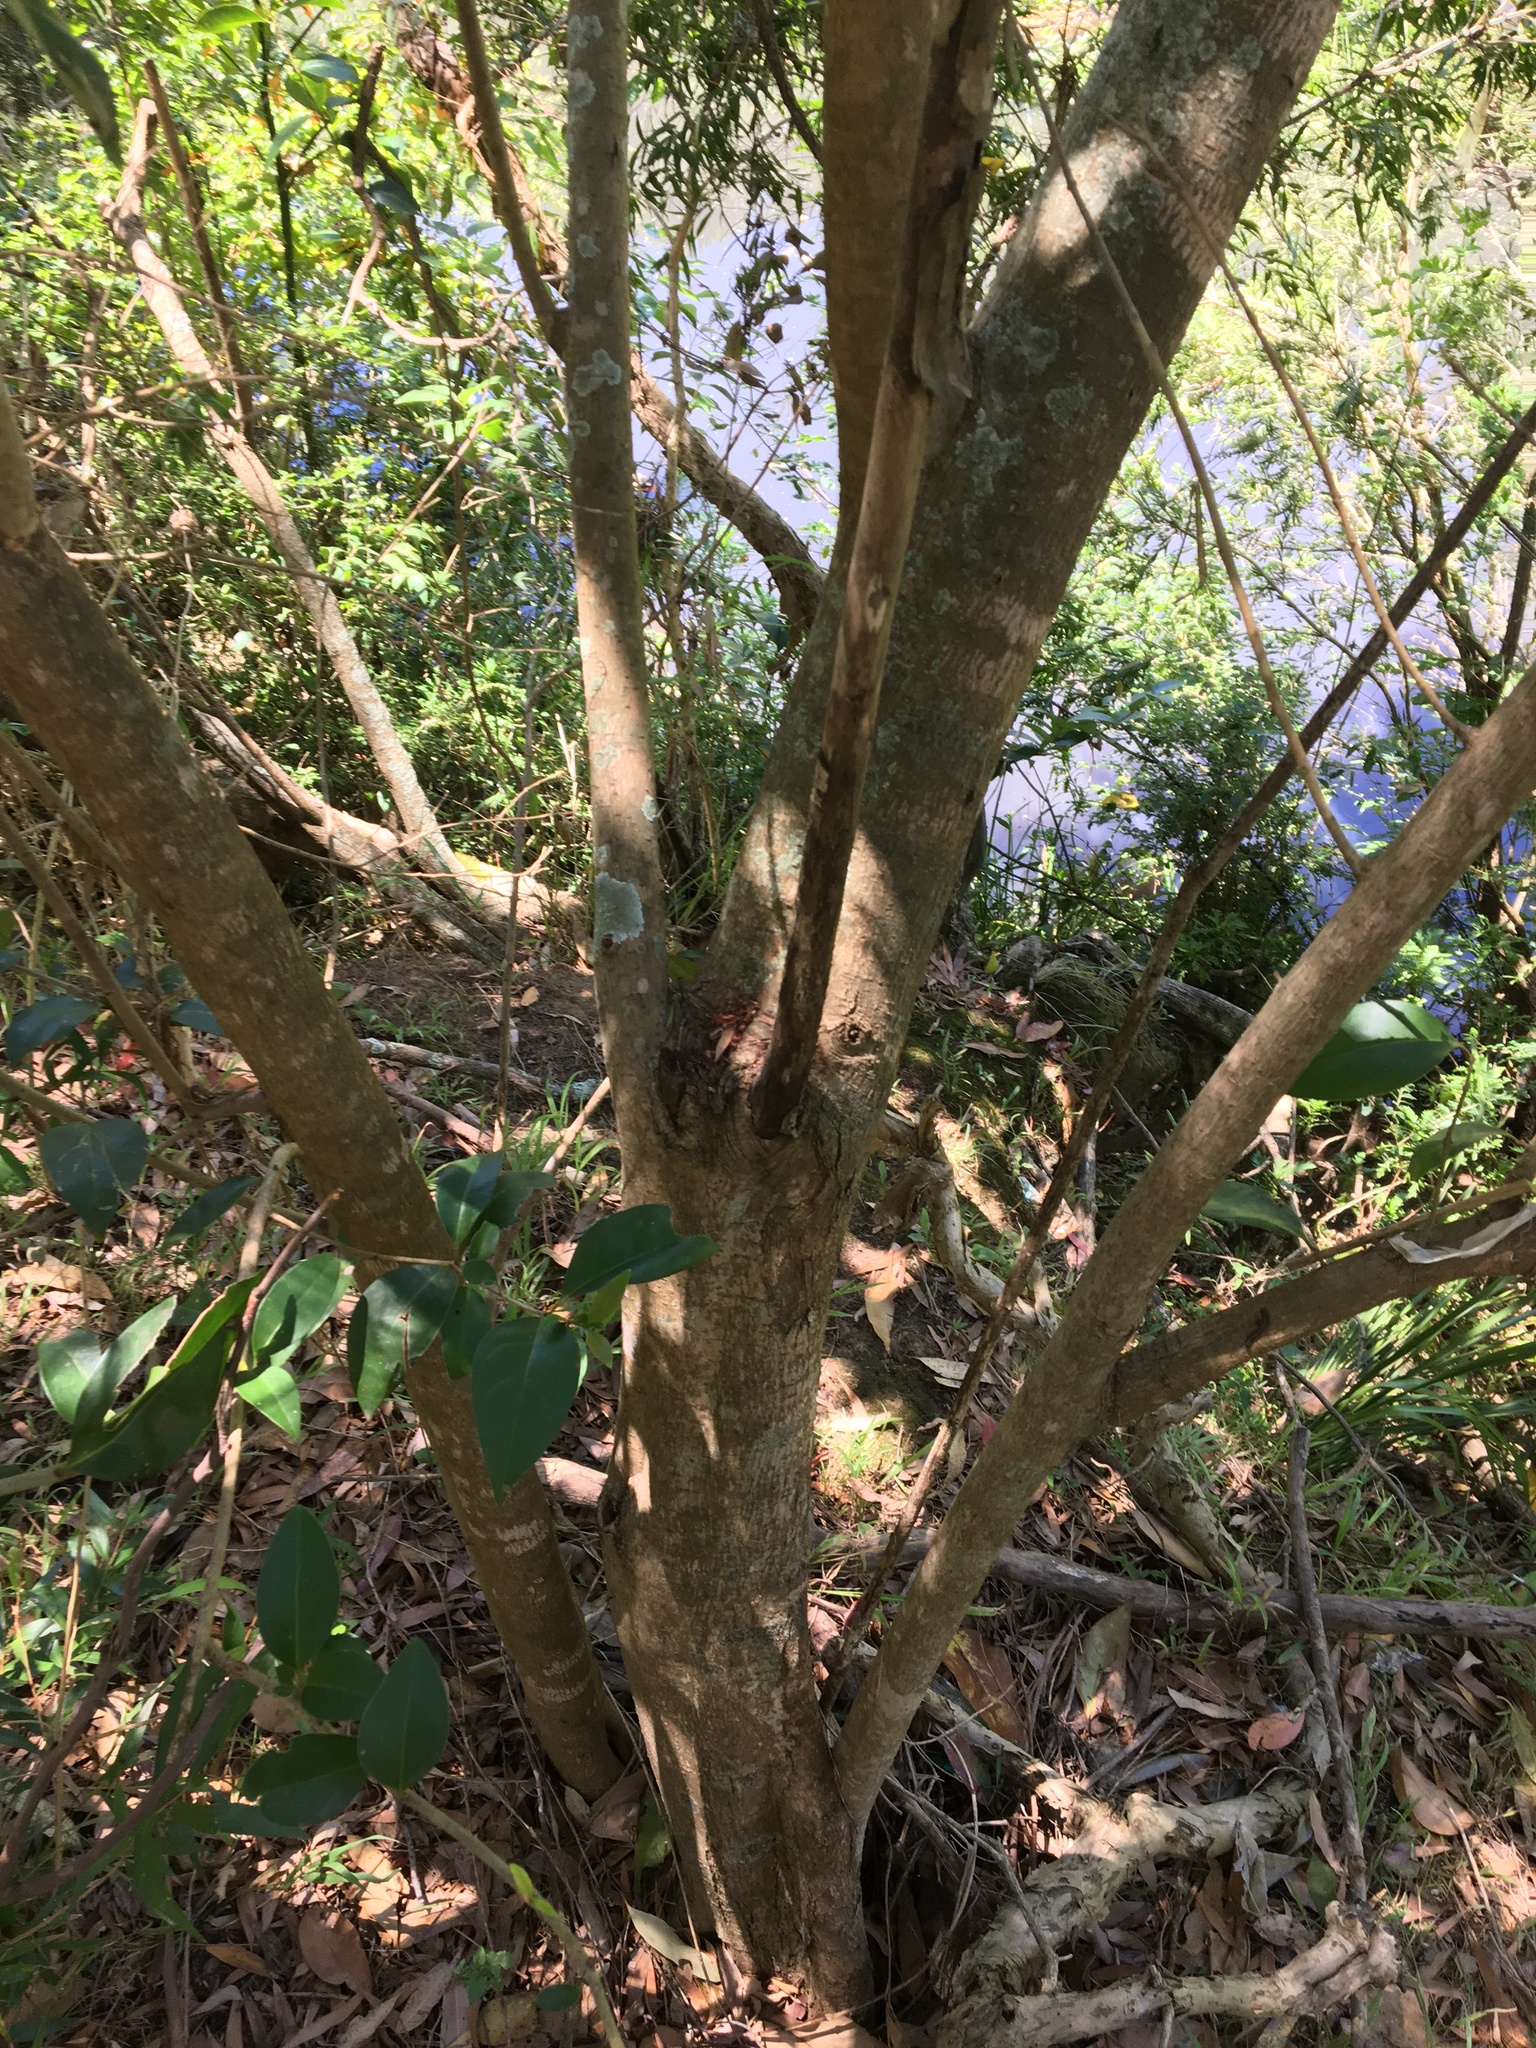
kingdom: Plantae
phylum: Tracheophyta
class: Magnoliopsida
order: Lamiales
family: Oleaceae
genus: Ligustrum
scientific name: Ligustrum lucidum
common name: Glossy privet
